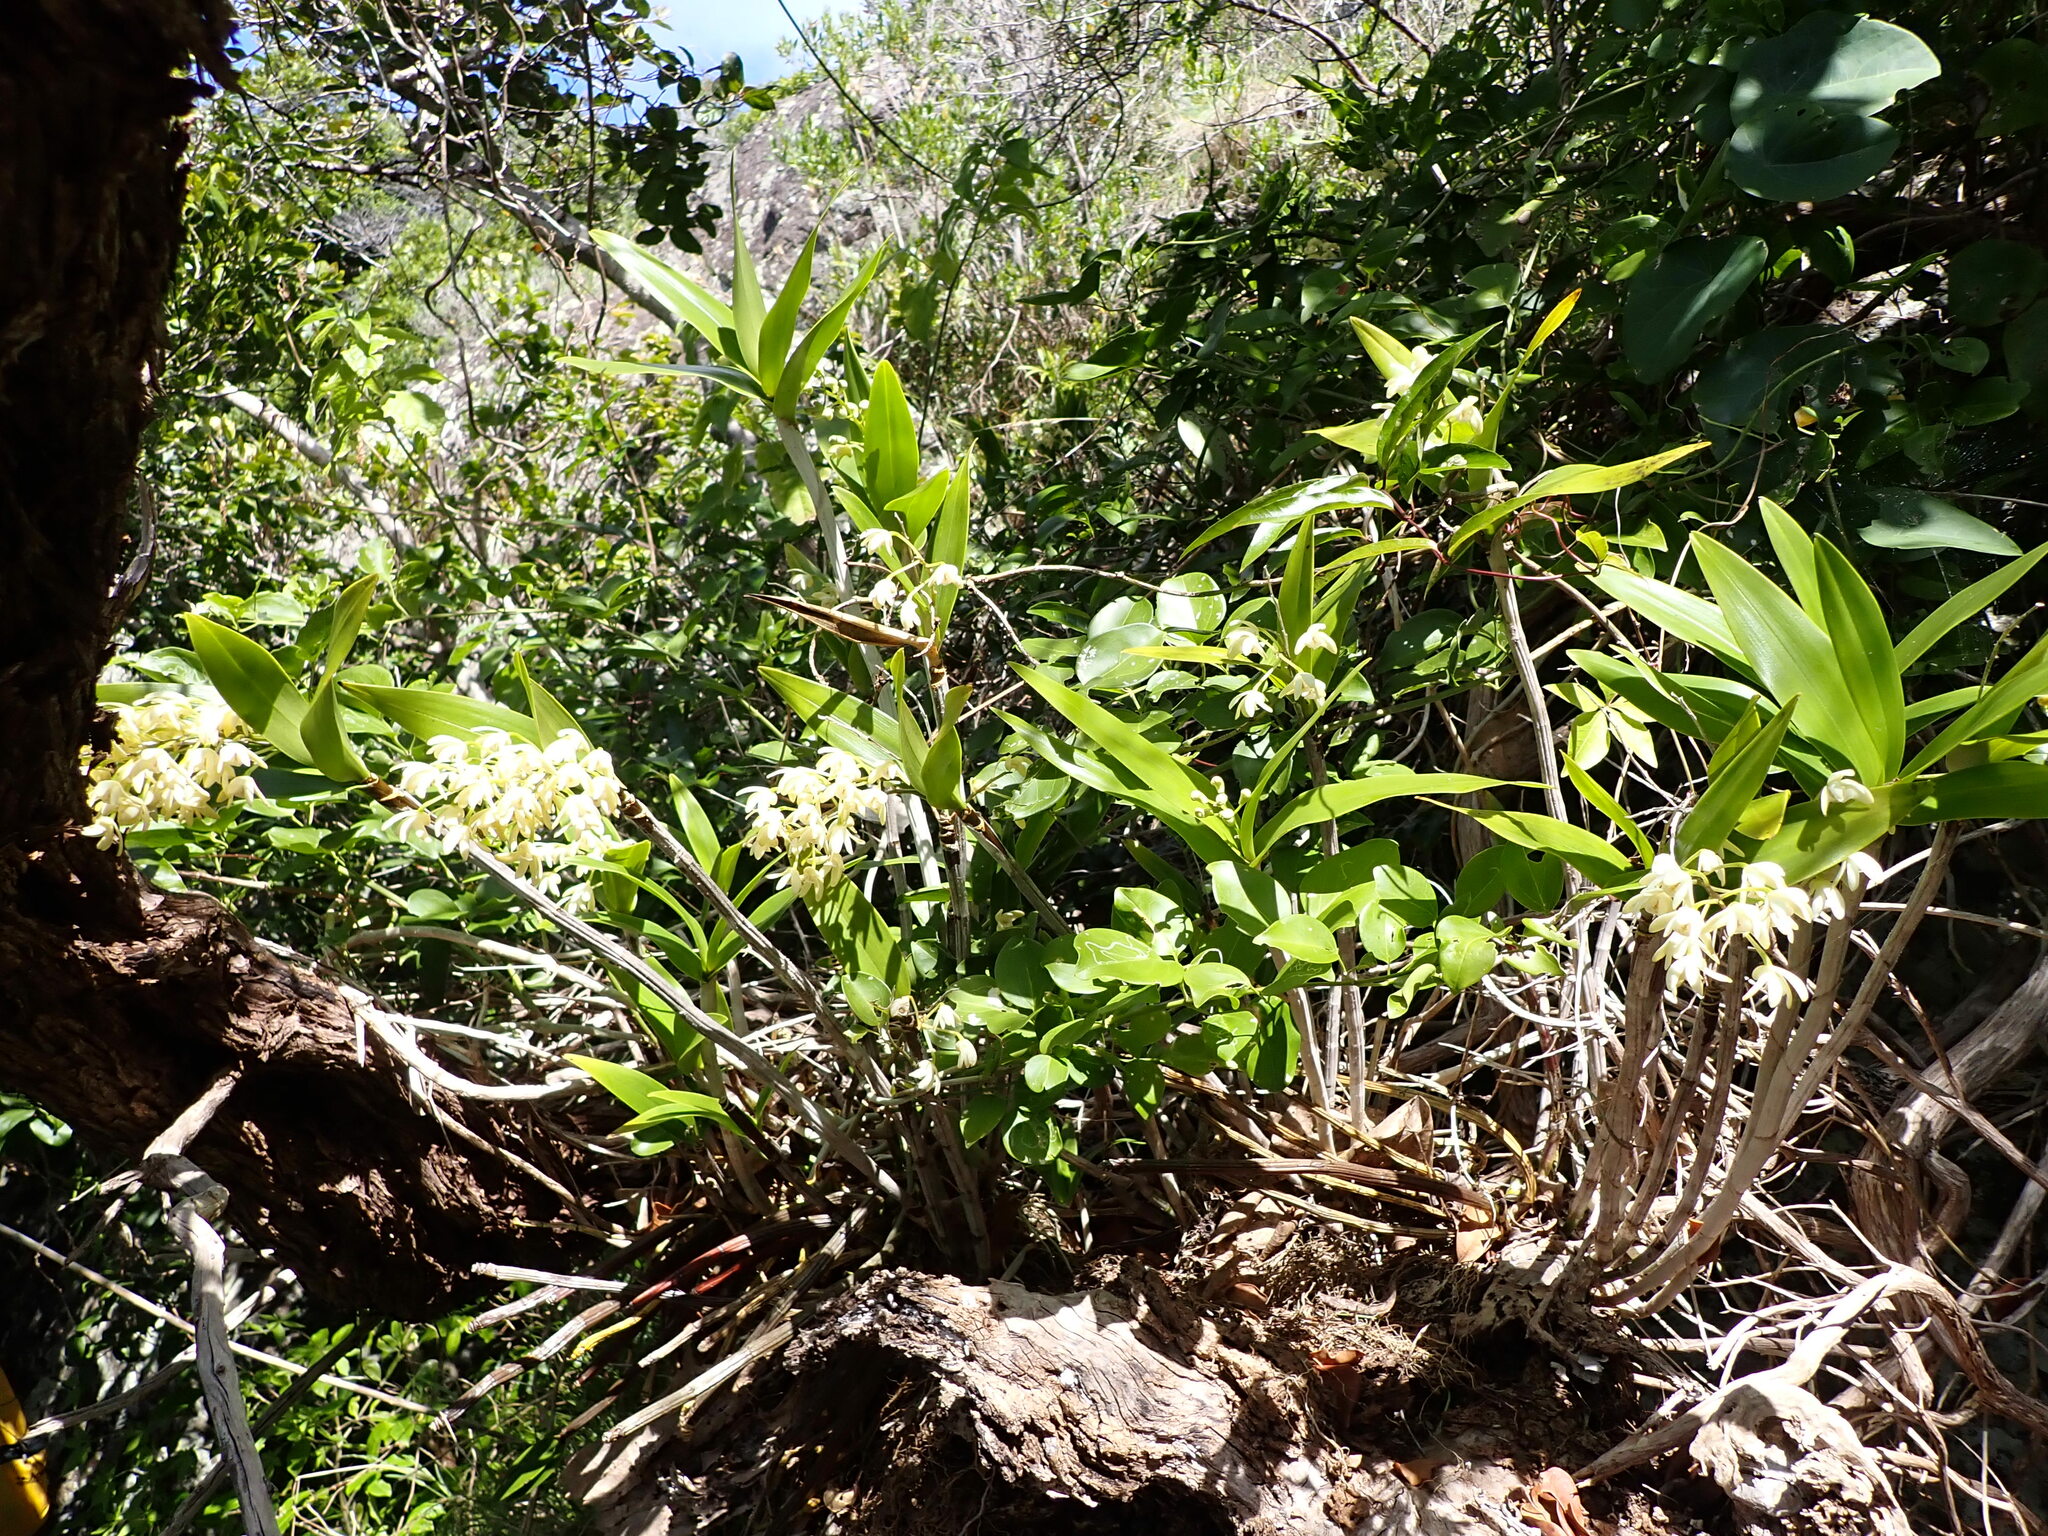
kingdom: Plantae
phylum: Tracheophyta
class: Liliopsida
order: Asparagales
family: Orchidaceae
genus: Dendrobium
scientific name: Dendrobium gracilicaule
